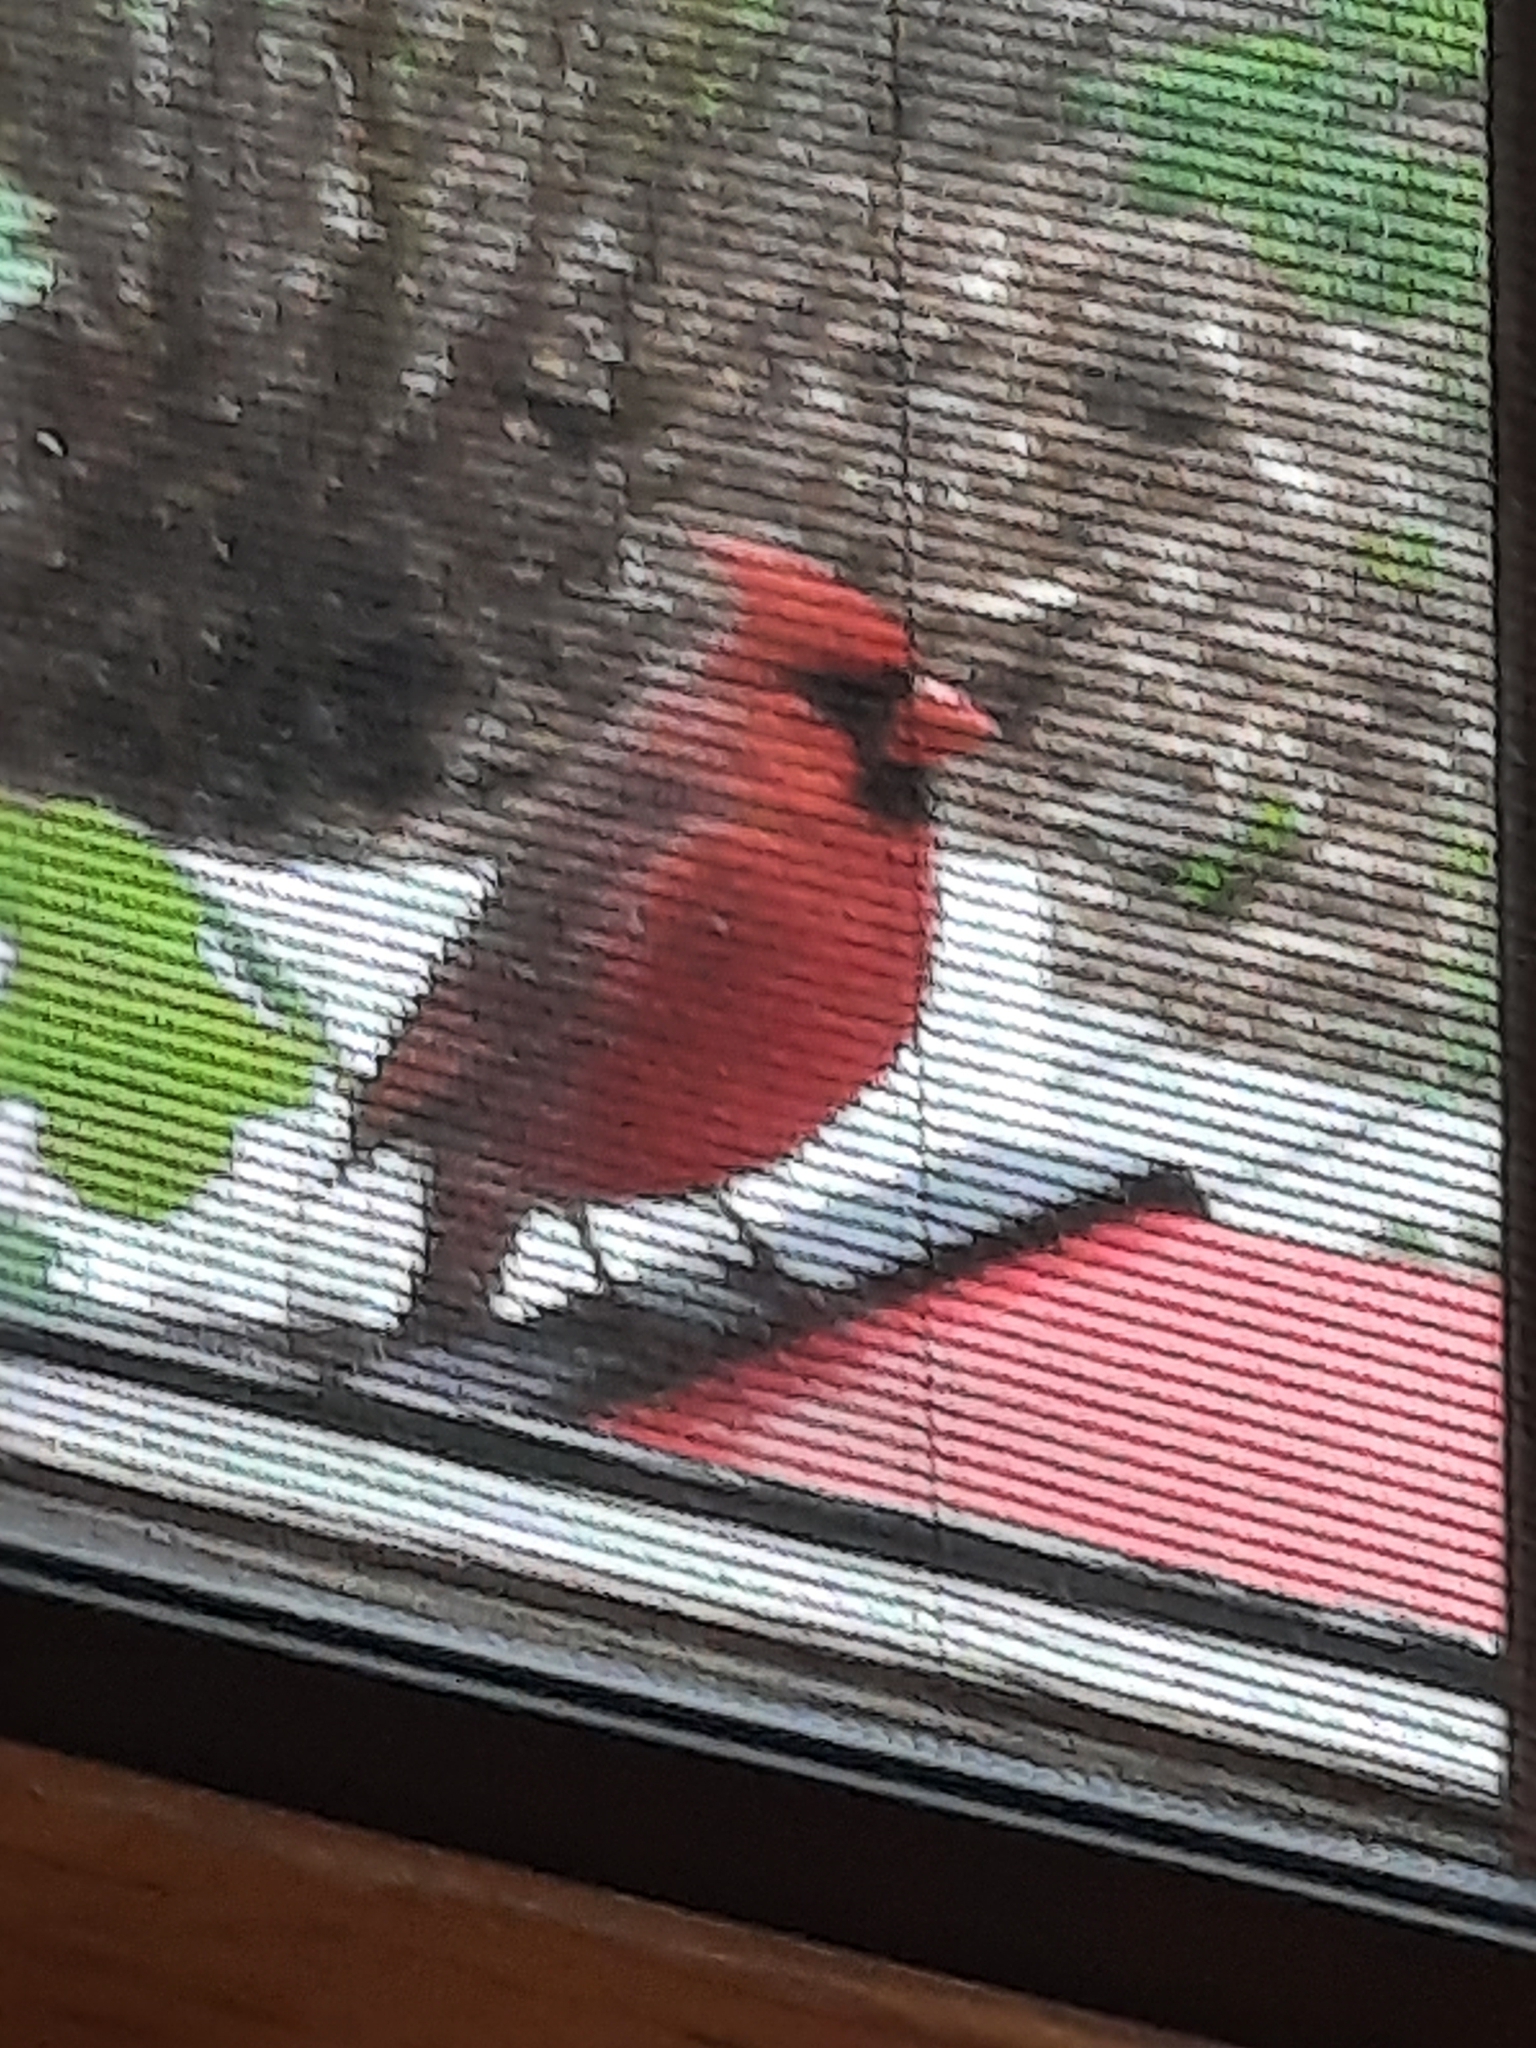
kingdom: Animalia
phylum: Chordata
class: Aves
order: Passeriformes
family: Cardinalidae
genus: Cardinalis
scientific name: Cardinalis cardinalis
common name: Northern cardinal
